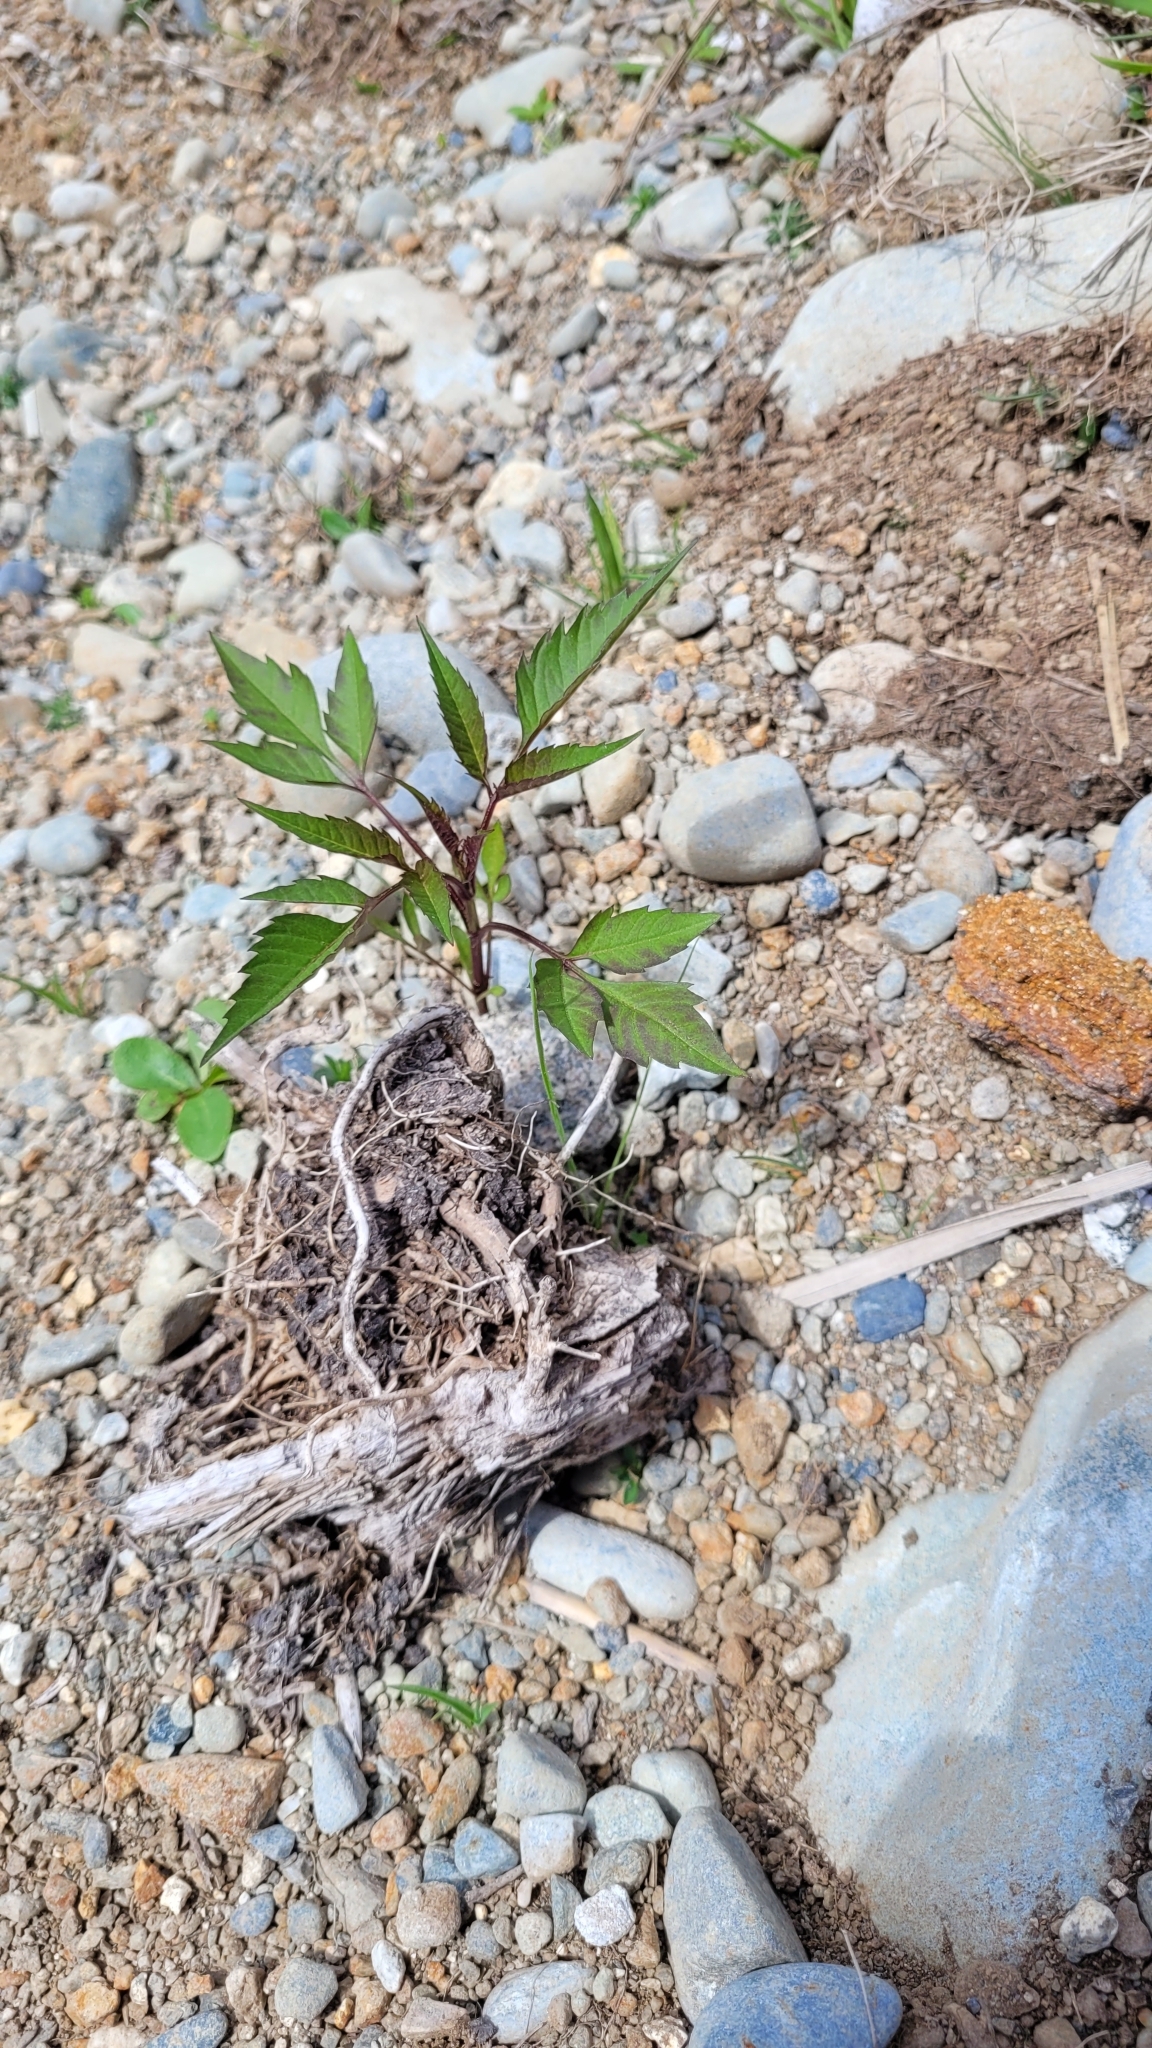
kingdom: Plantae
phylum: Tracheophyta
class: Magnoliopsida
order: Asterales
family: Asteraceae
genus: Bidens
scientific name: Bidens frondosa
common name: Beggarticks
